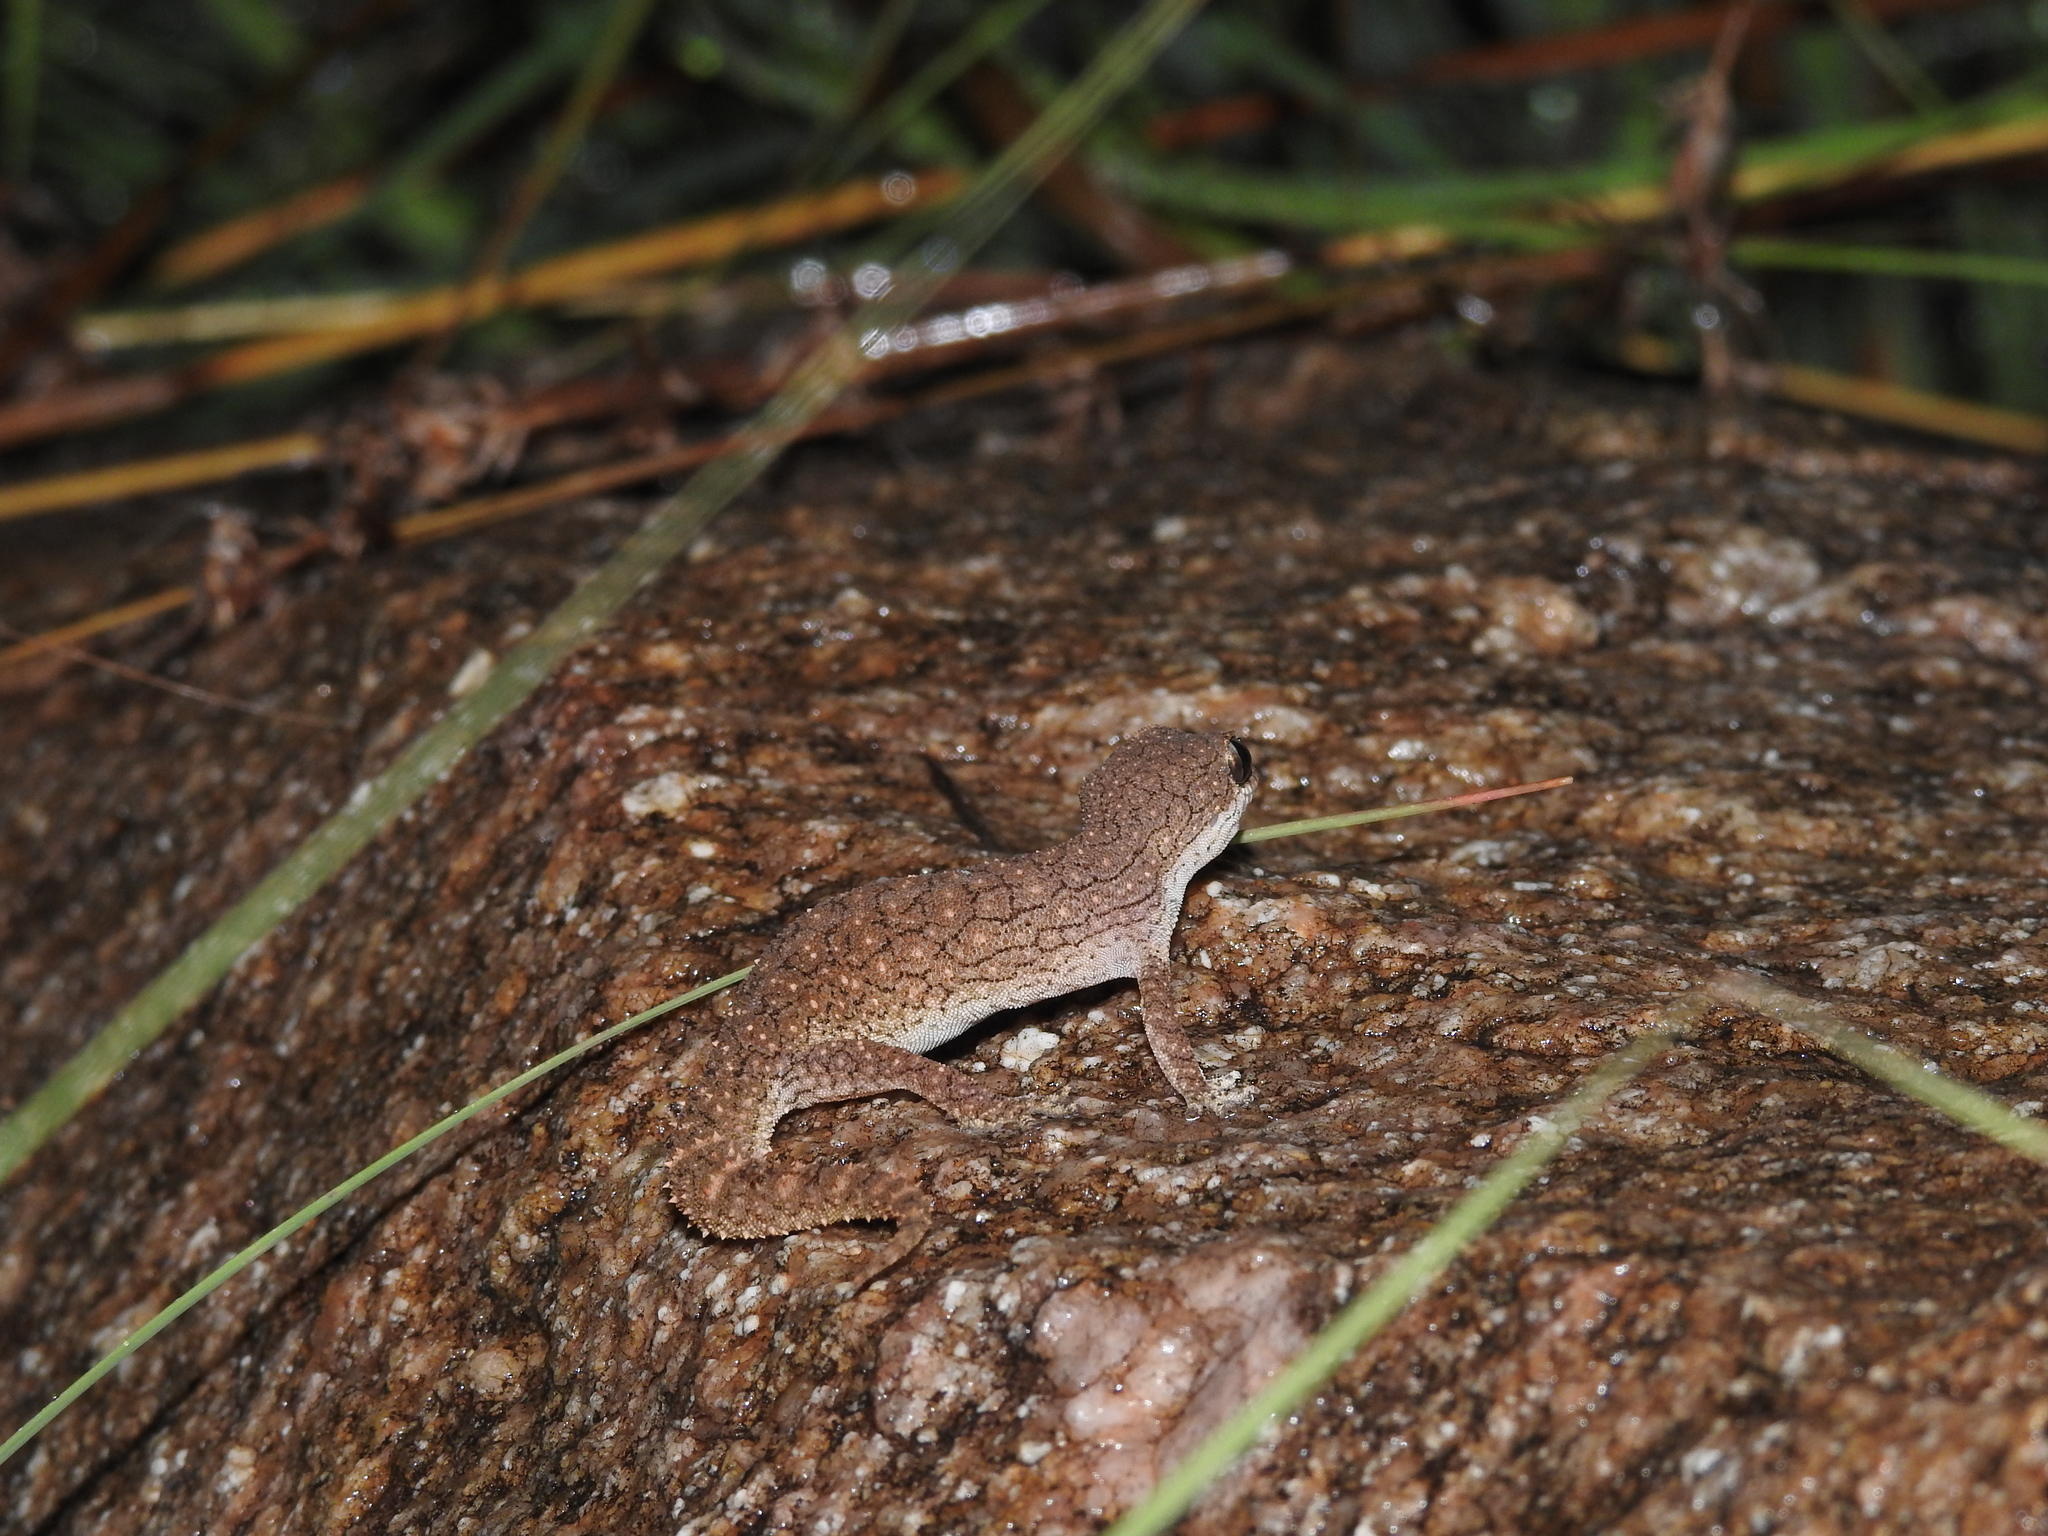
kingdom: Animalia
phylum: Chordata
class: Squamata
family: Gekkonidae
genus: Hemidactylus
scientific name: Hemidactylus reticulatus
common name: Reticulate leaf-toed gecko
